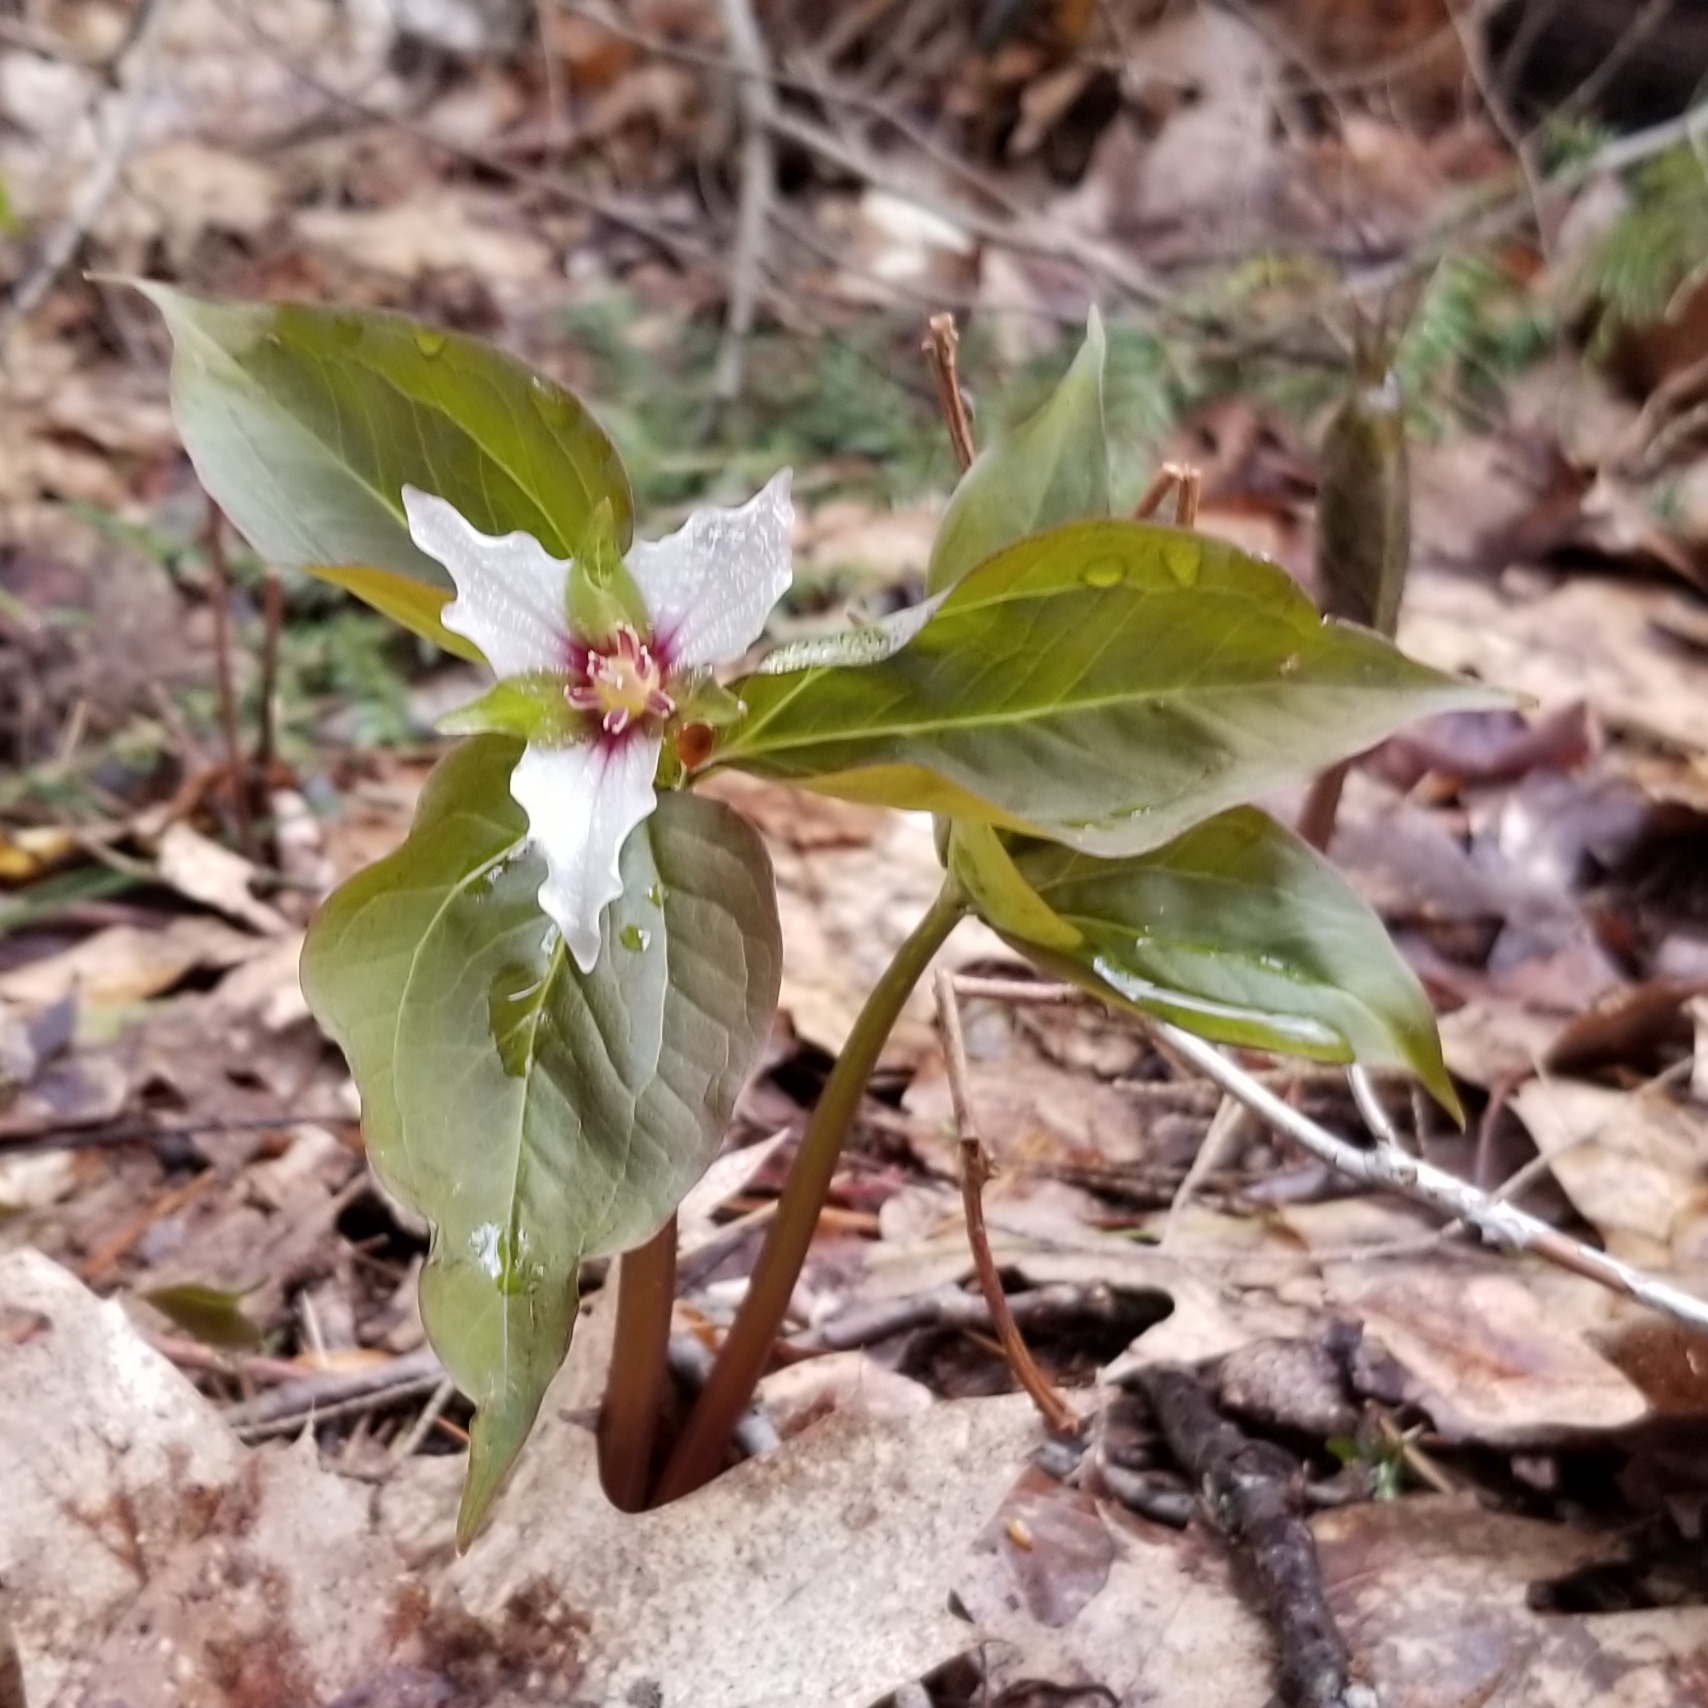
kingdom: Plantae
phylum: Tracheophyta
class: Liliopsida
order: Liliales
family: Melanthiaceae
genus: Trillium
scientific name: Trillium undulatum
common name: Paint trillium
